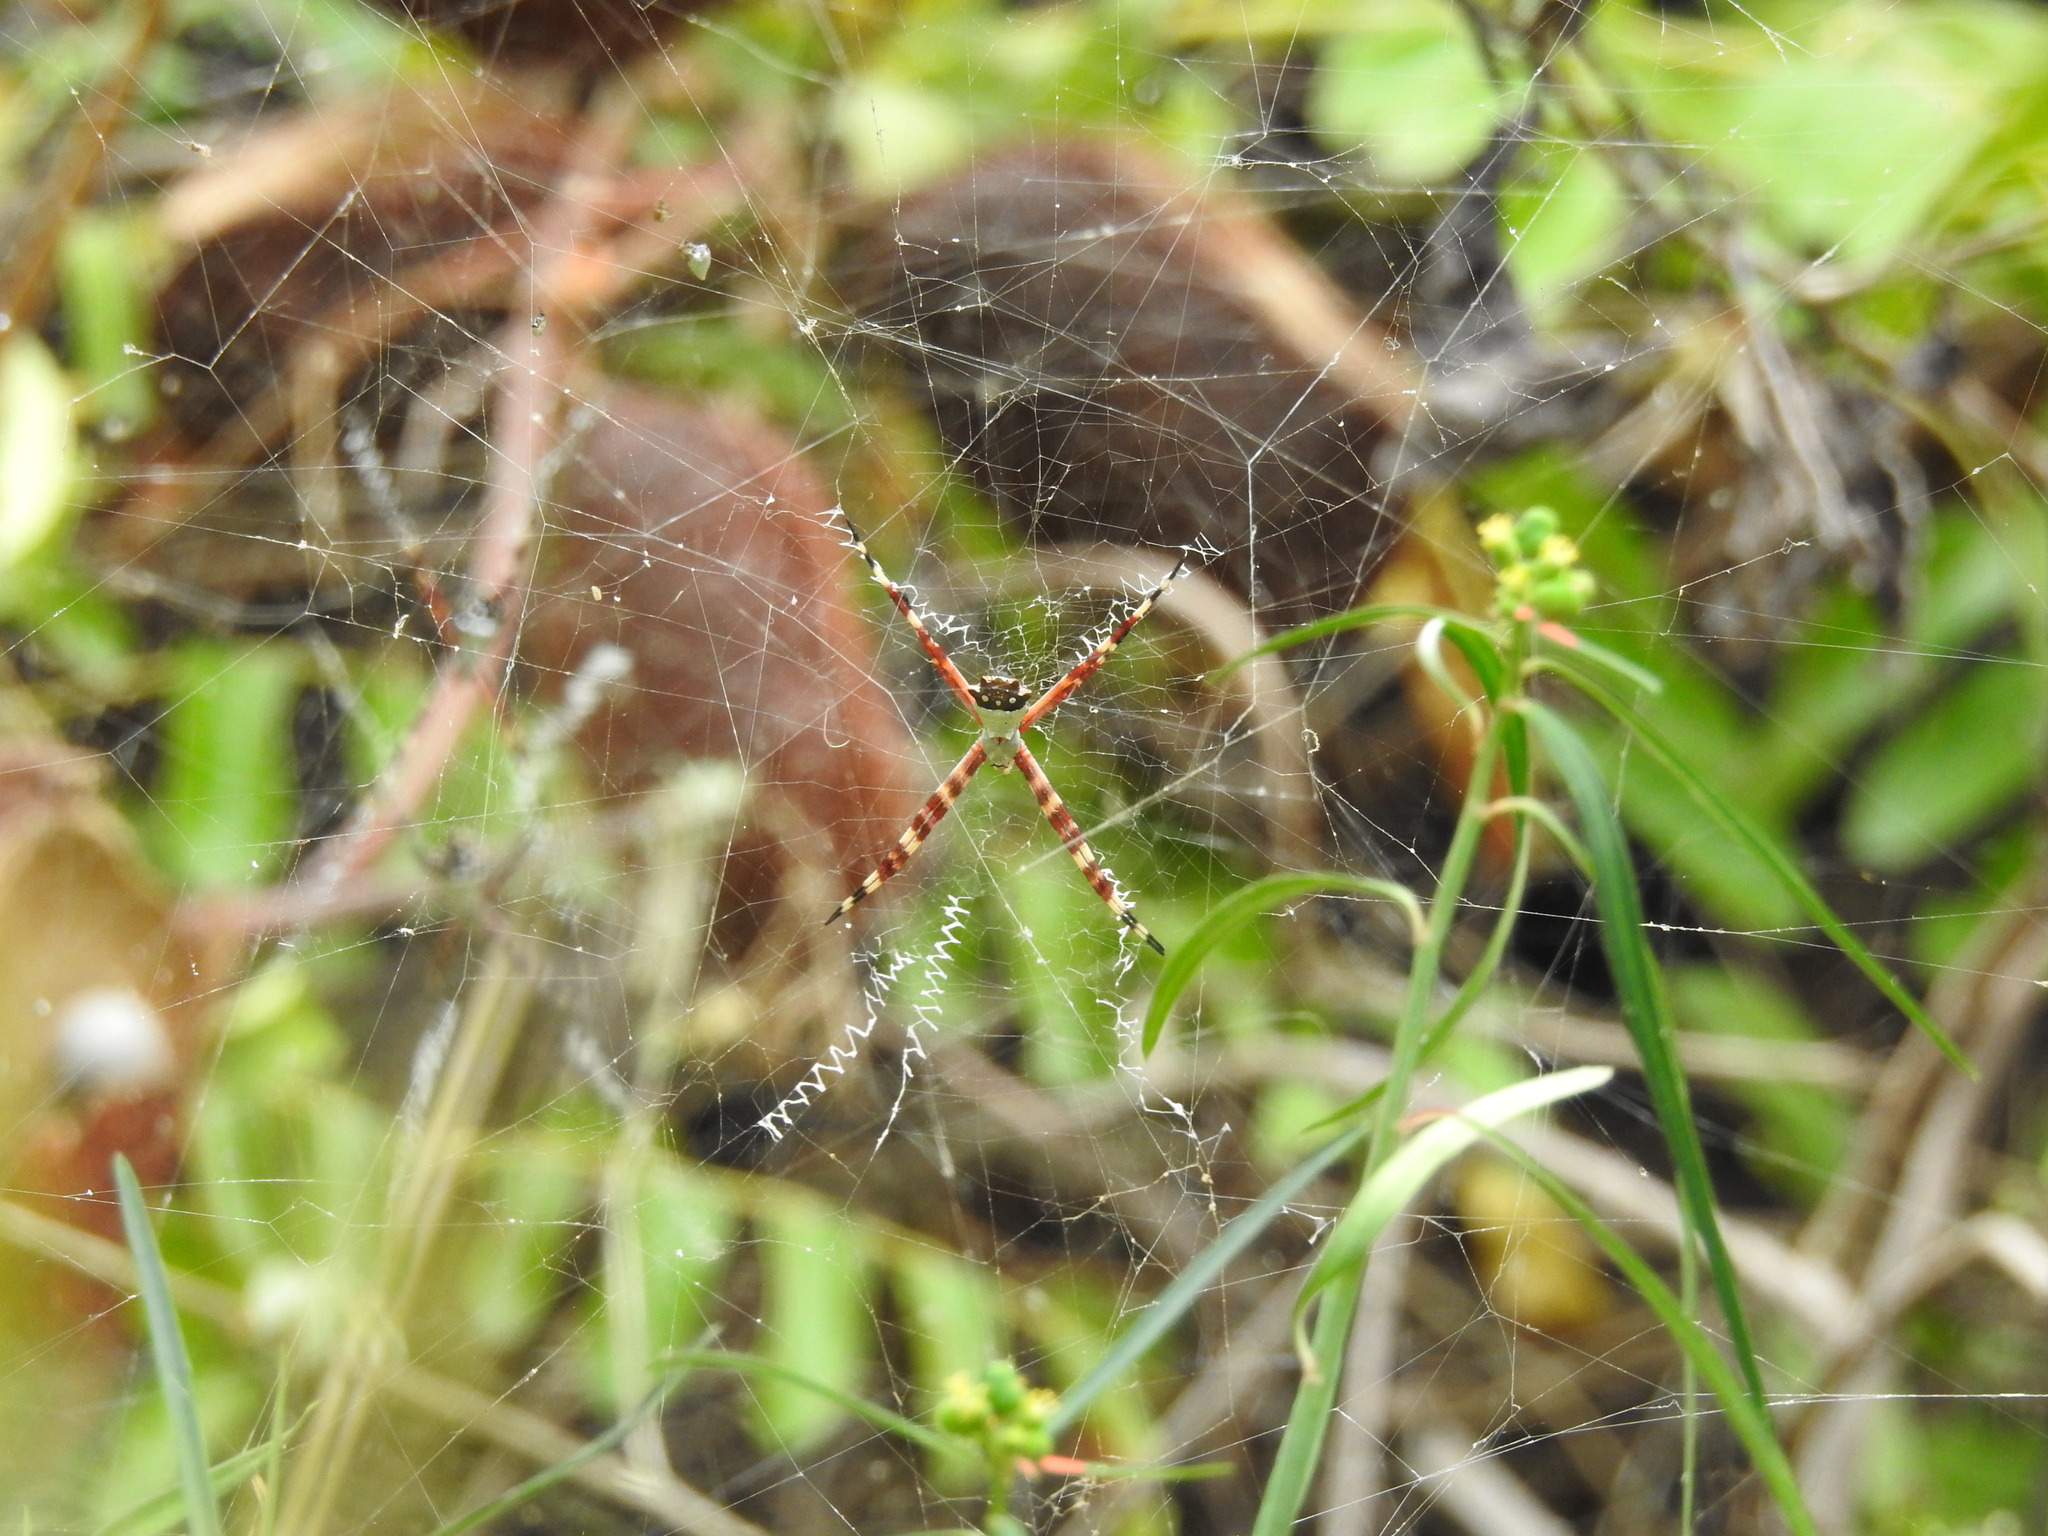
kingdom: Animalia
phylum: Arthropoda
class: Arachnida
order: Araneae
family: Araneidae
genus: Argiope
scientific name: Argiope argentata
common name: Orb weavers
